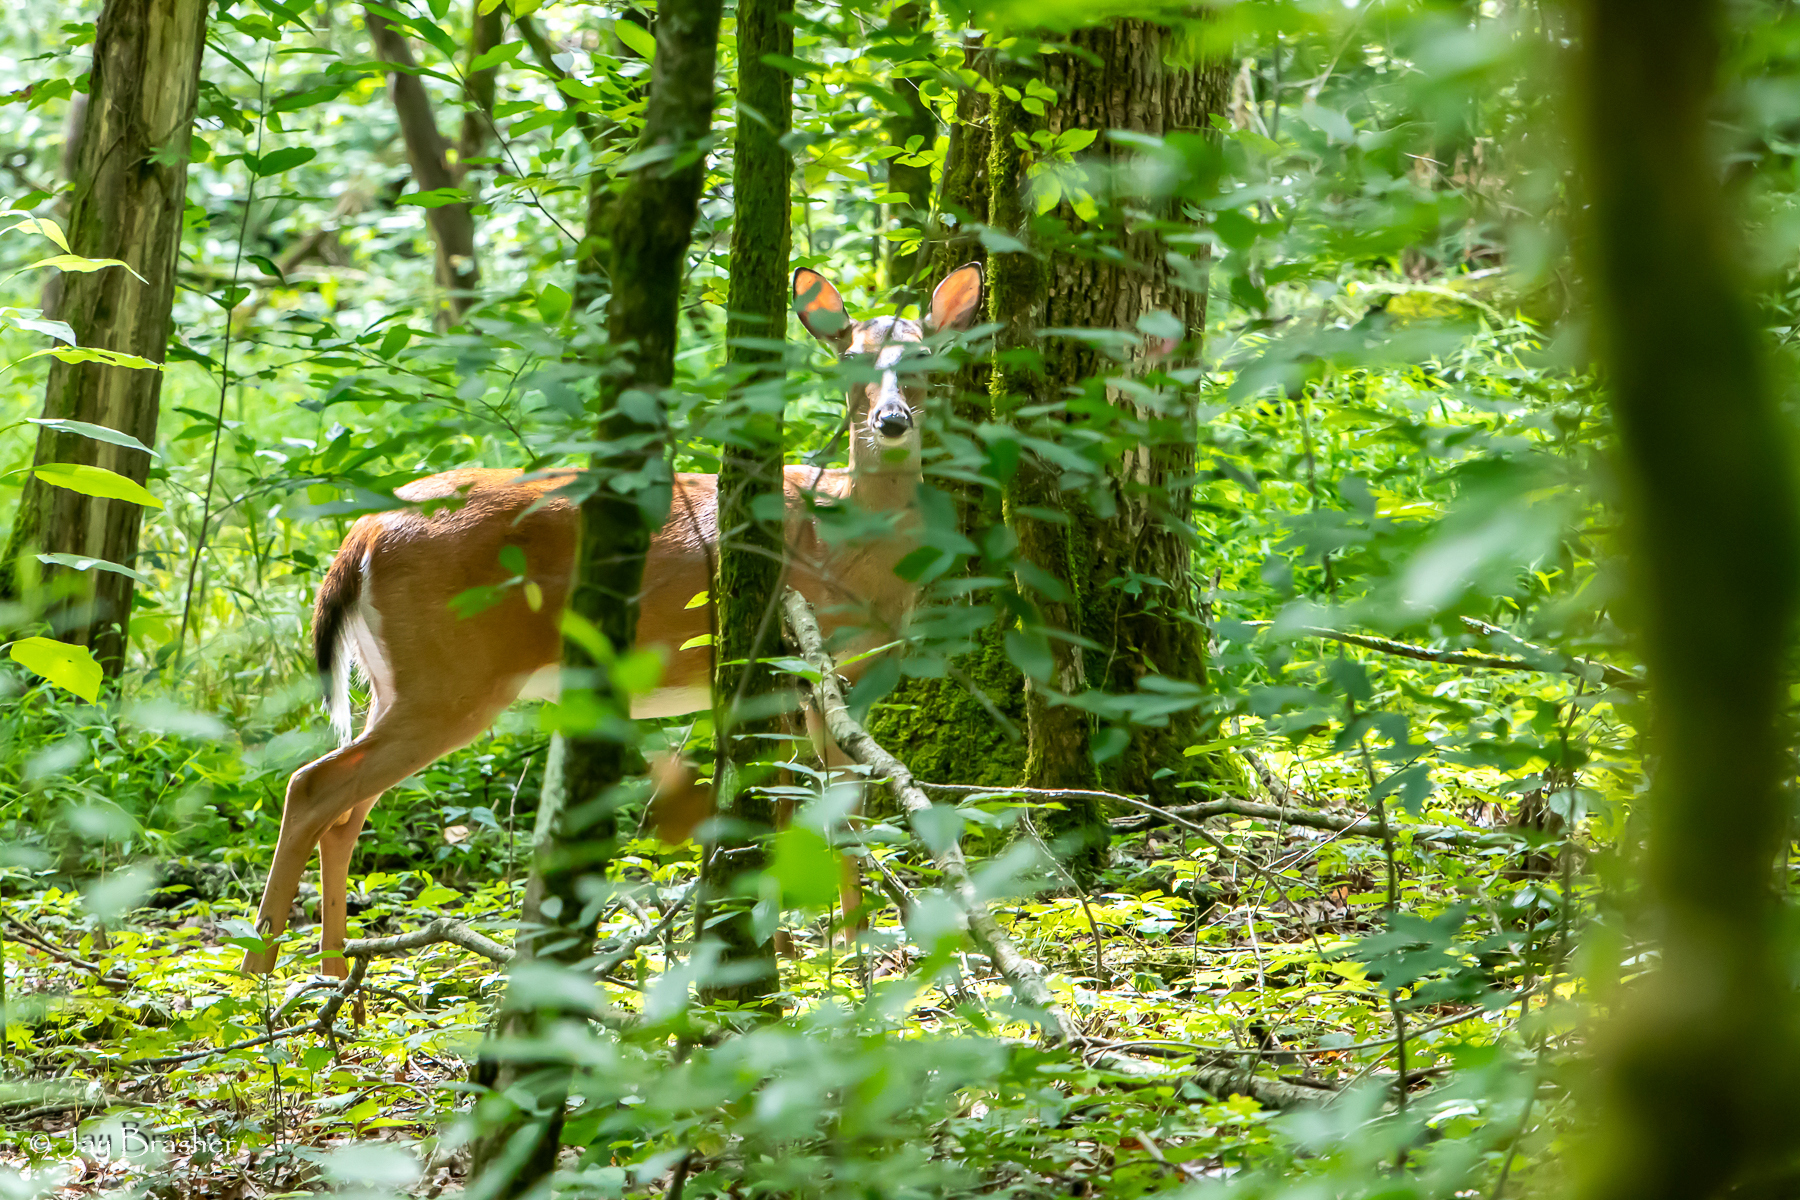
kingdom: Animalia
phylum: Chordata
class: Mammalia
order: Artiodactyla
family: Cervidae
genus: Odocoileus
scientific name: Odocoileus virginianus
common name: White-tailed deer
